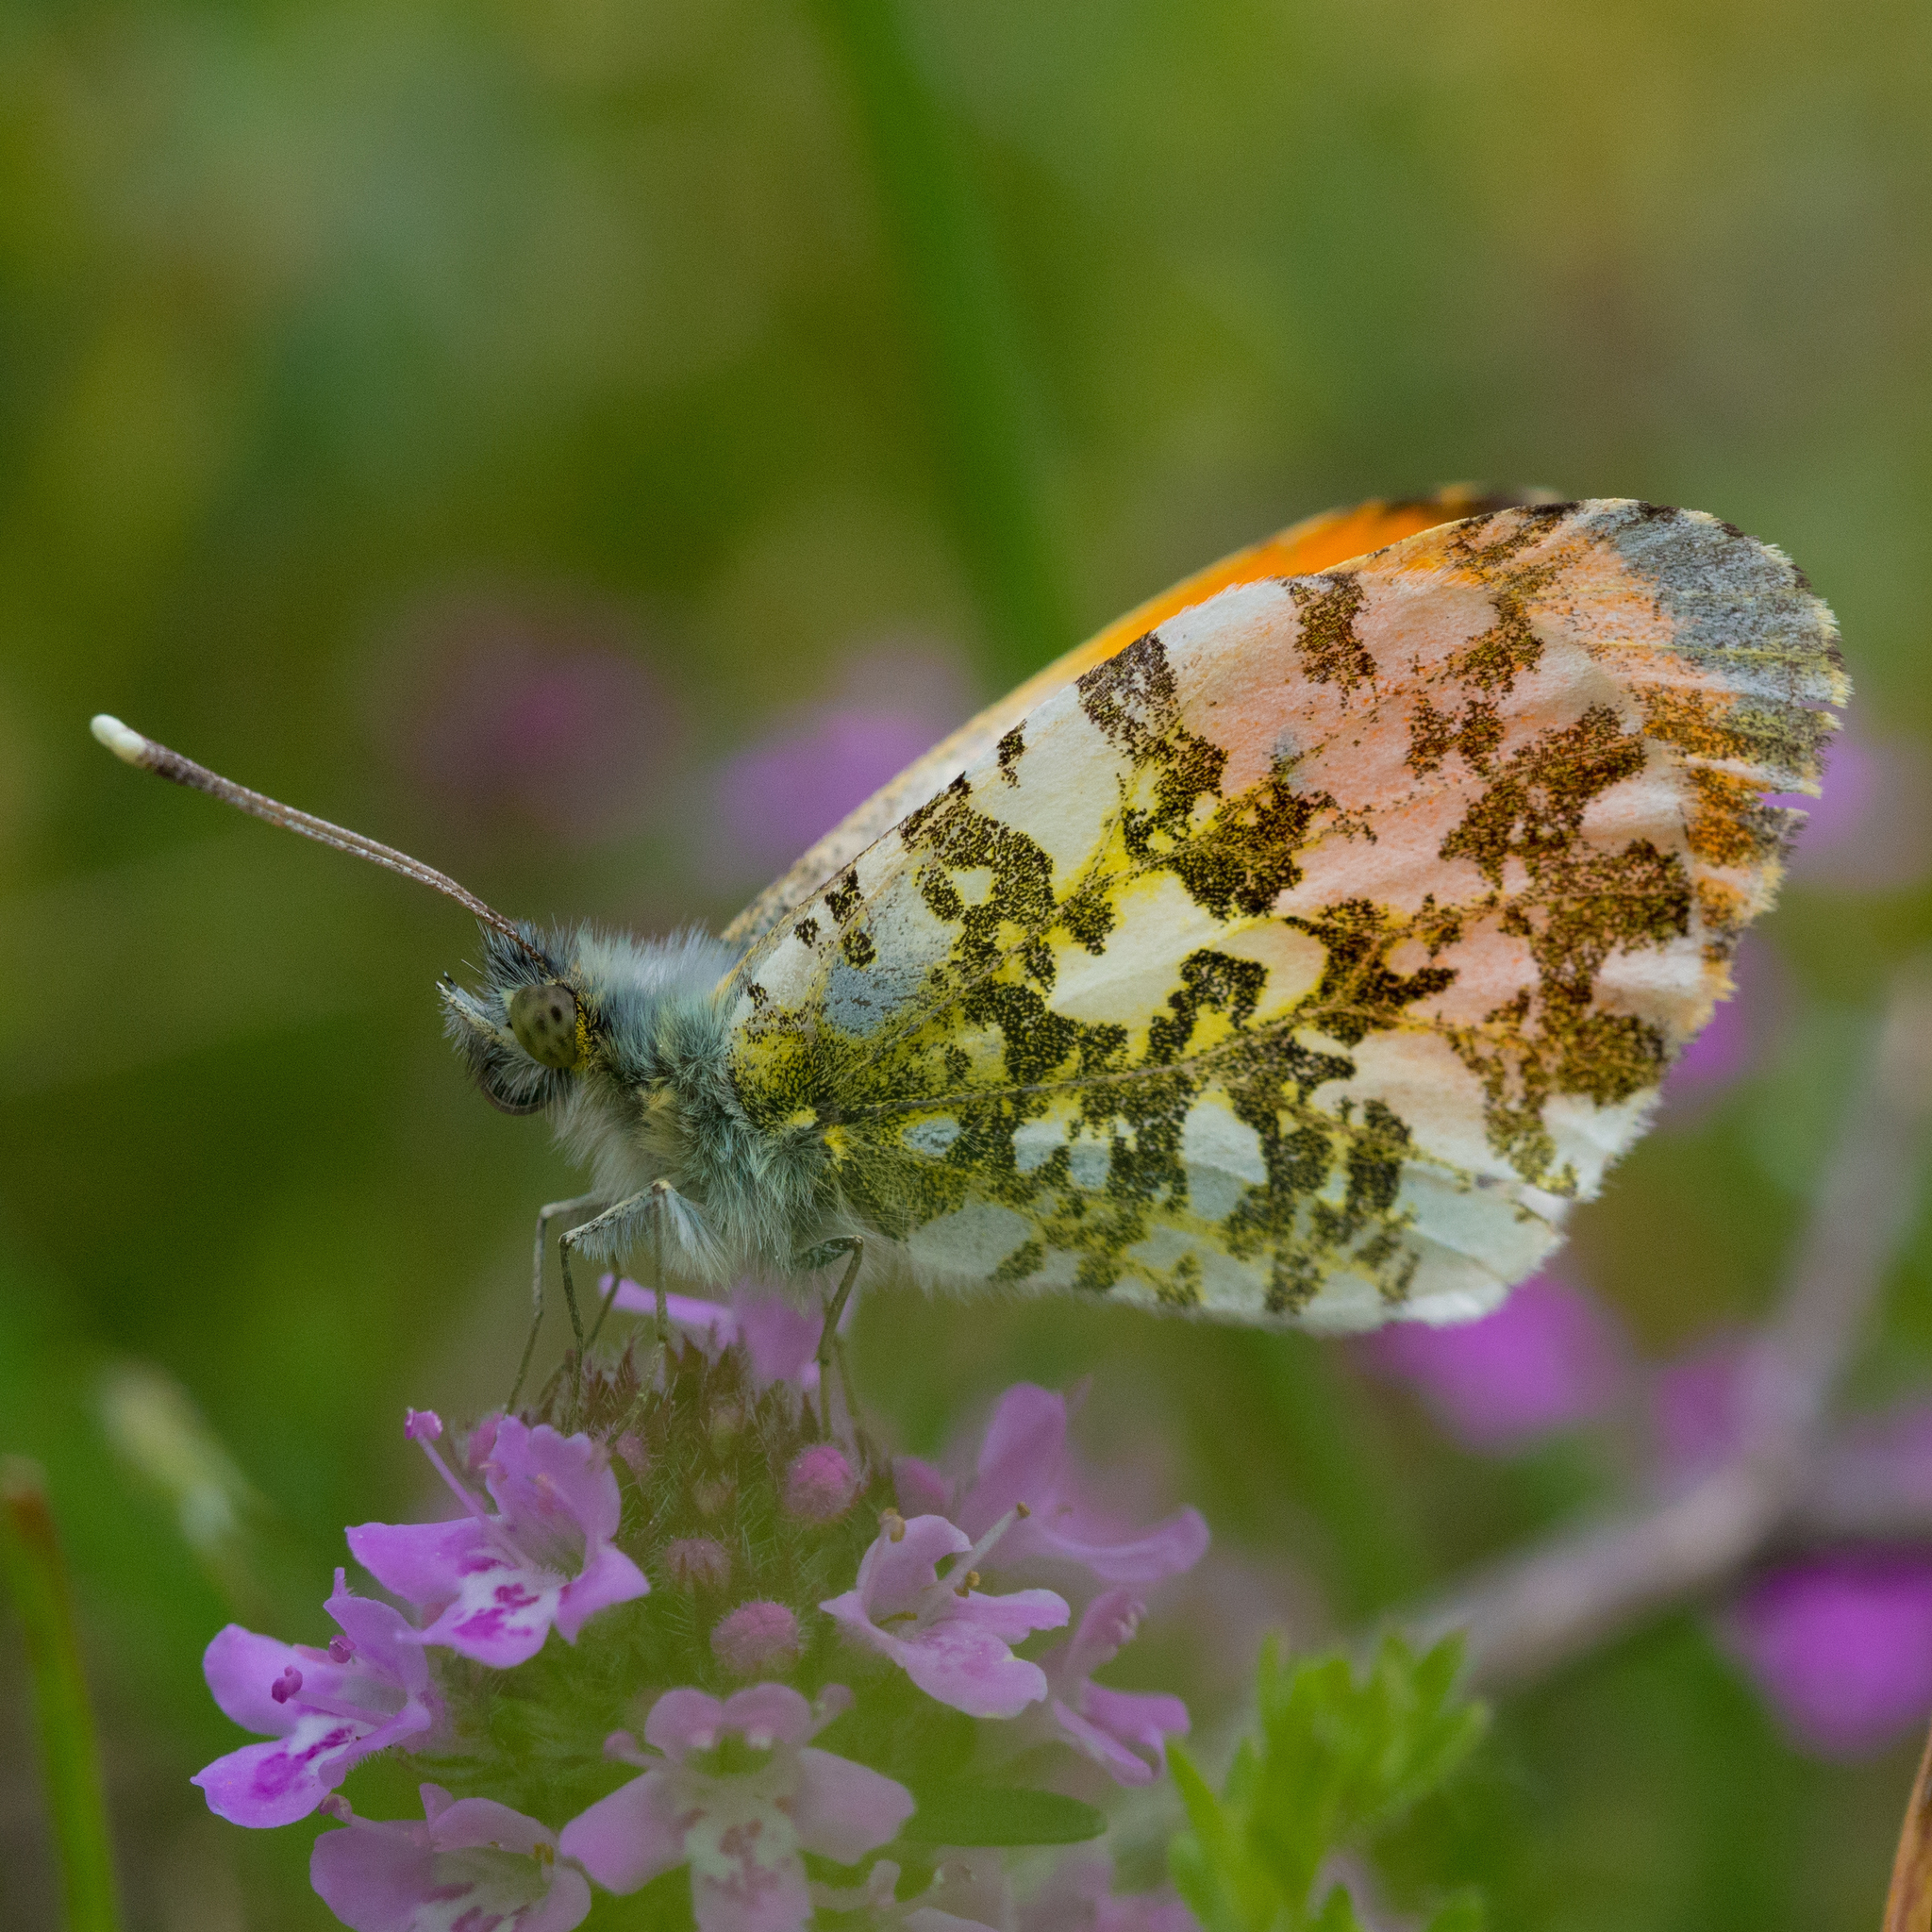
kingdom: Animalia
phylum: Arthropoda
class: Insecta
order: Lepidoptera
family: Pieridae
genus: Anthocharis
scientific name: Anthocharis cardamines
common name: Orange-tip
